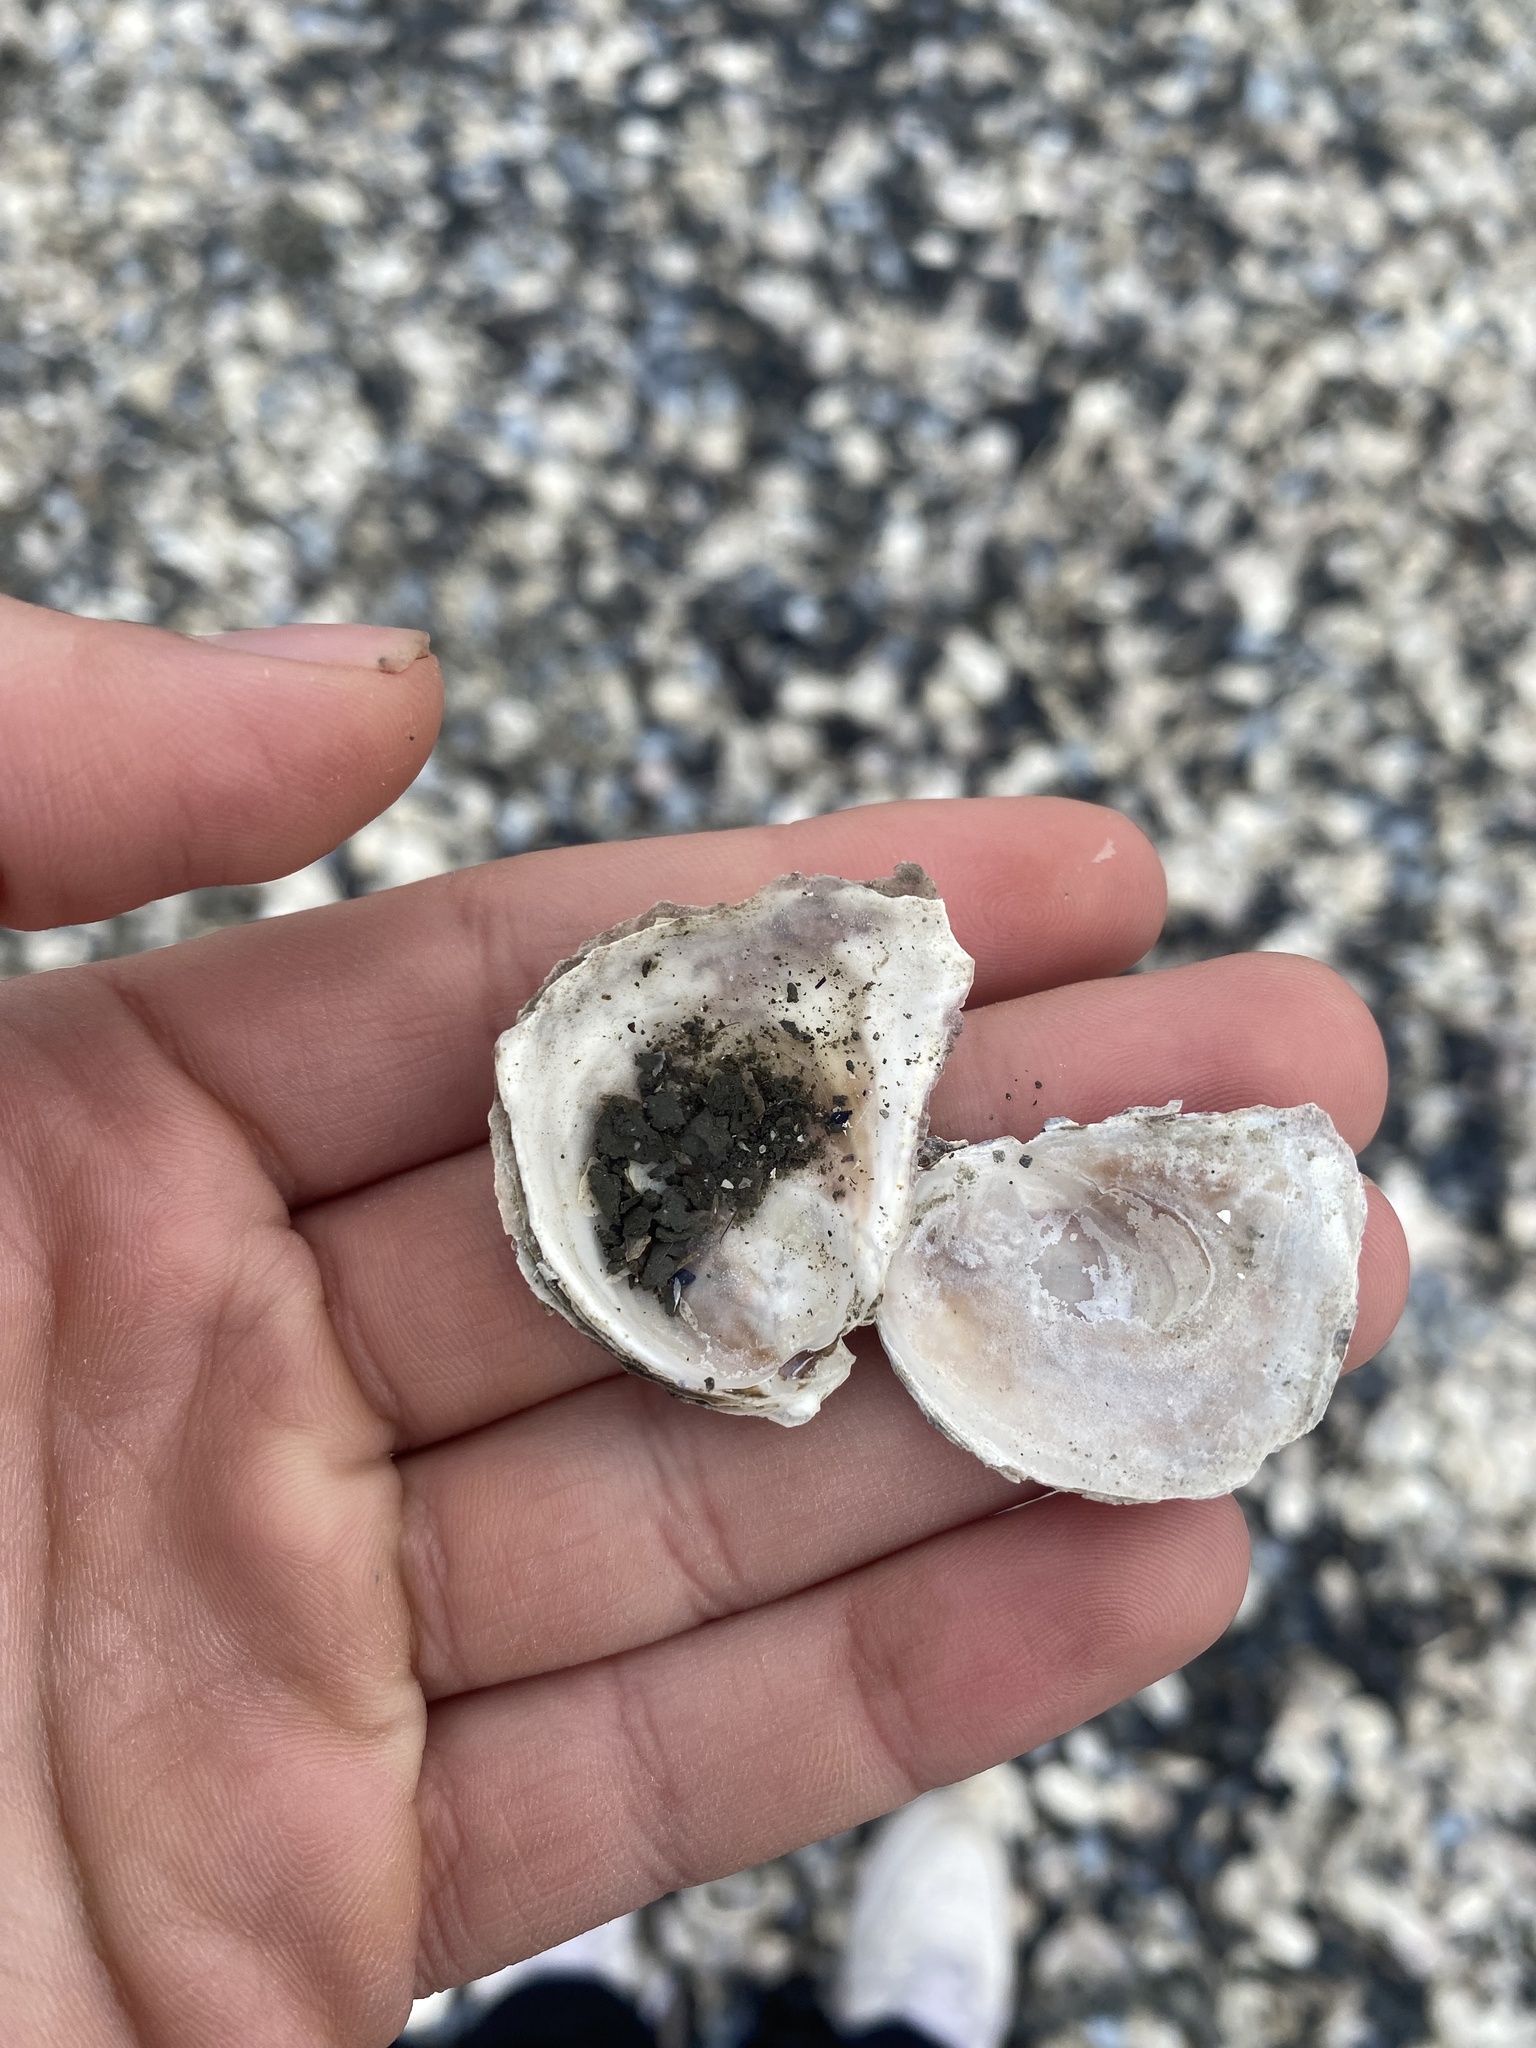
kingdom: Animalia
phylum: Mollusca
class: Bivalvia
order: Ostreida
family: Ostreidae
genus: Ostrea
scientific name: Ostrea lurida
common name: Olympia flat oyster
